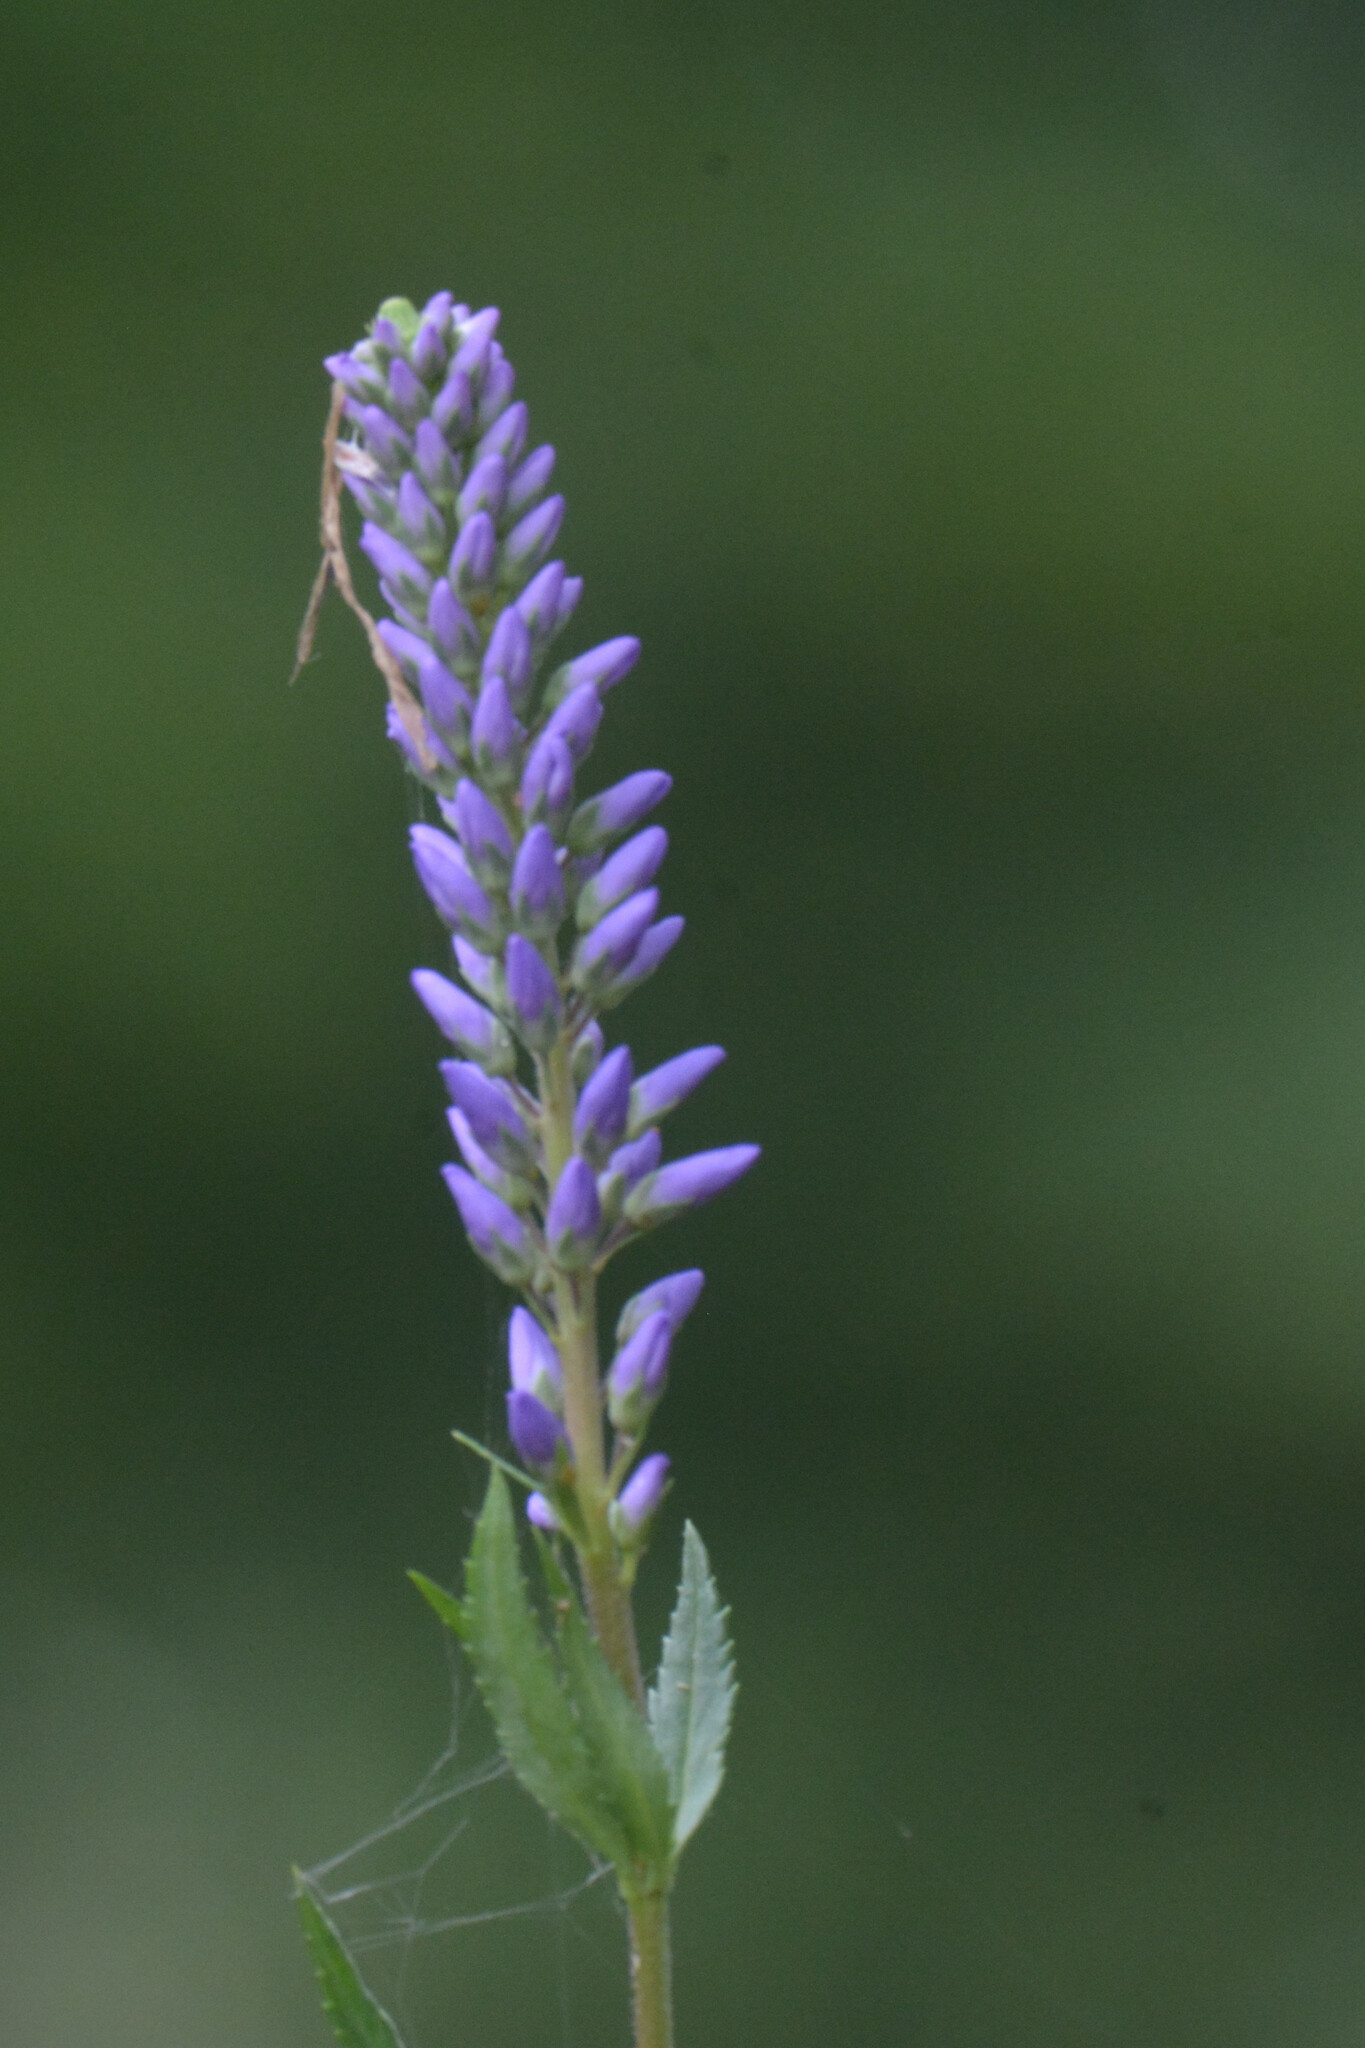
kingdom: Plantae
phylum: Tracheophyta
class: Magnoliopsida
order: Lamiales
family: Plantaginaceae
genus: Veronica
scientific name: Veronica longifolia
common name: Garden speedwell
